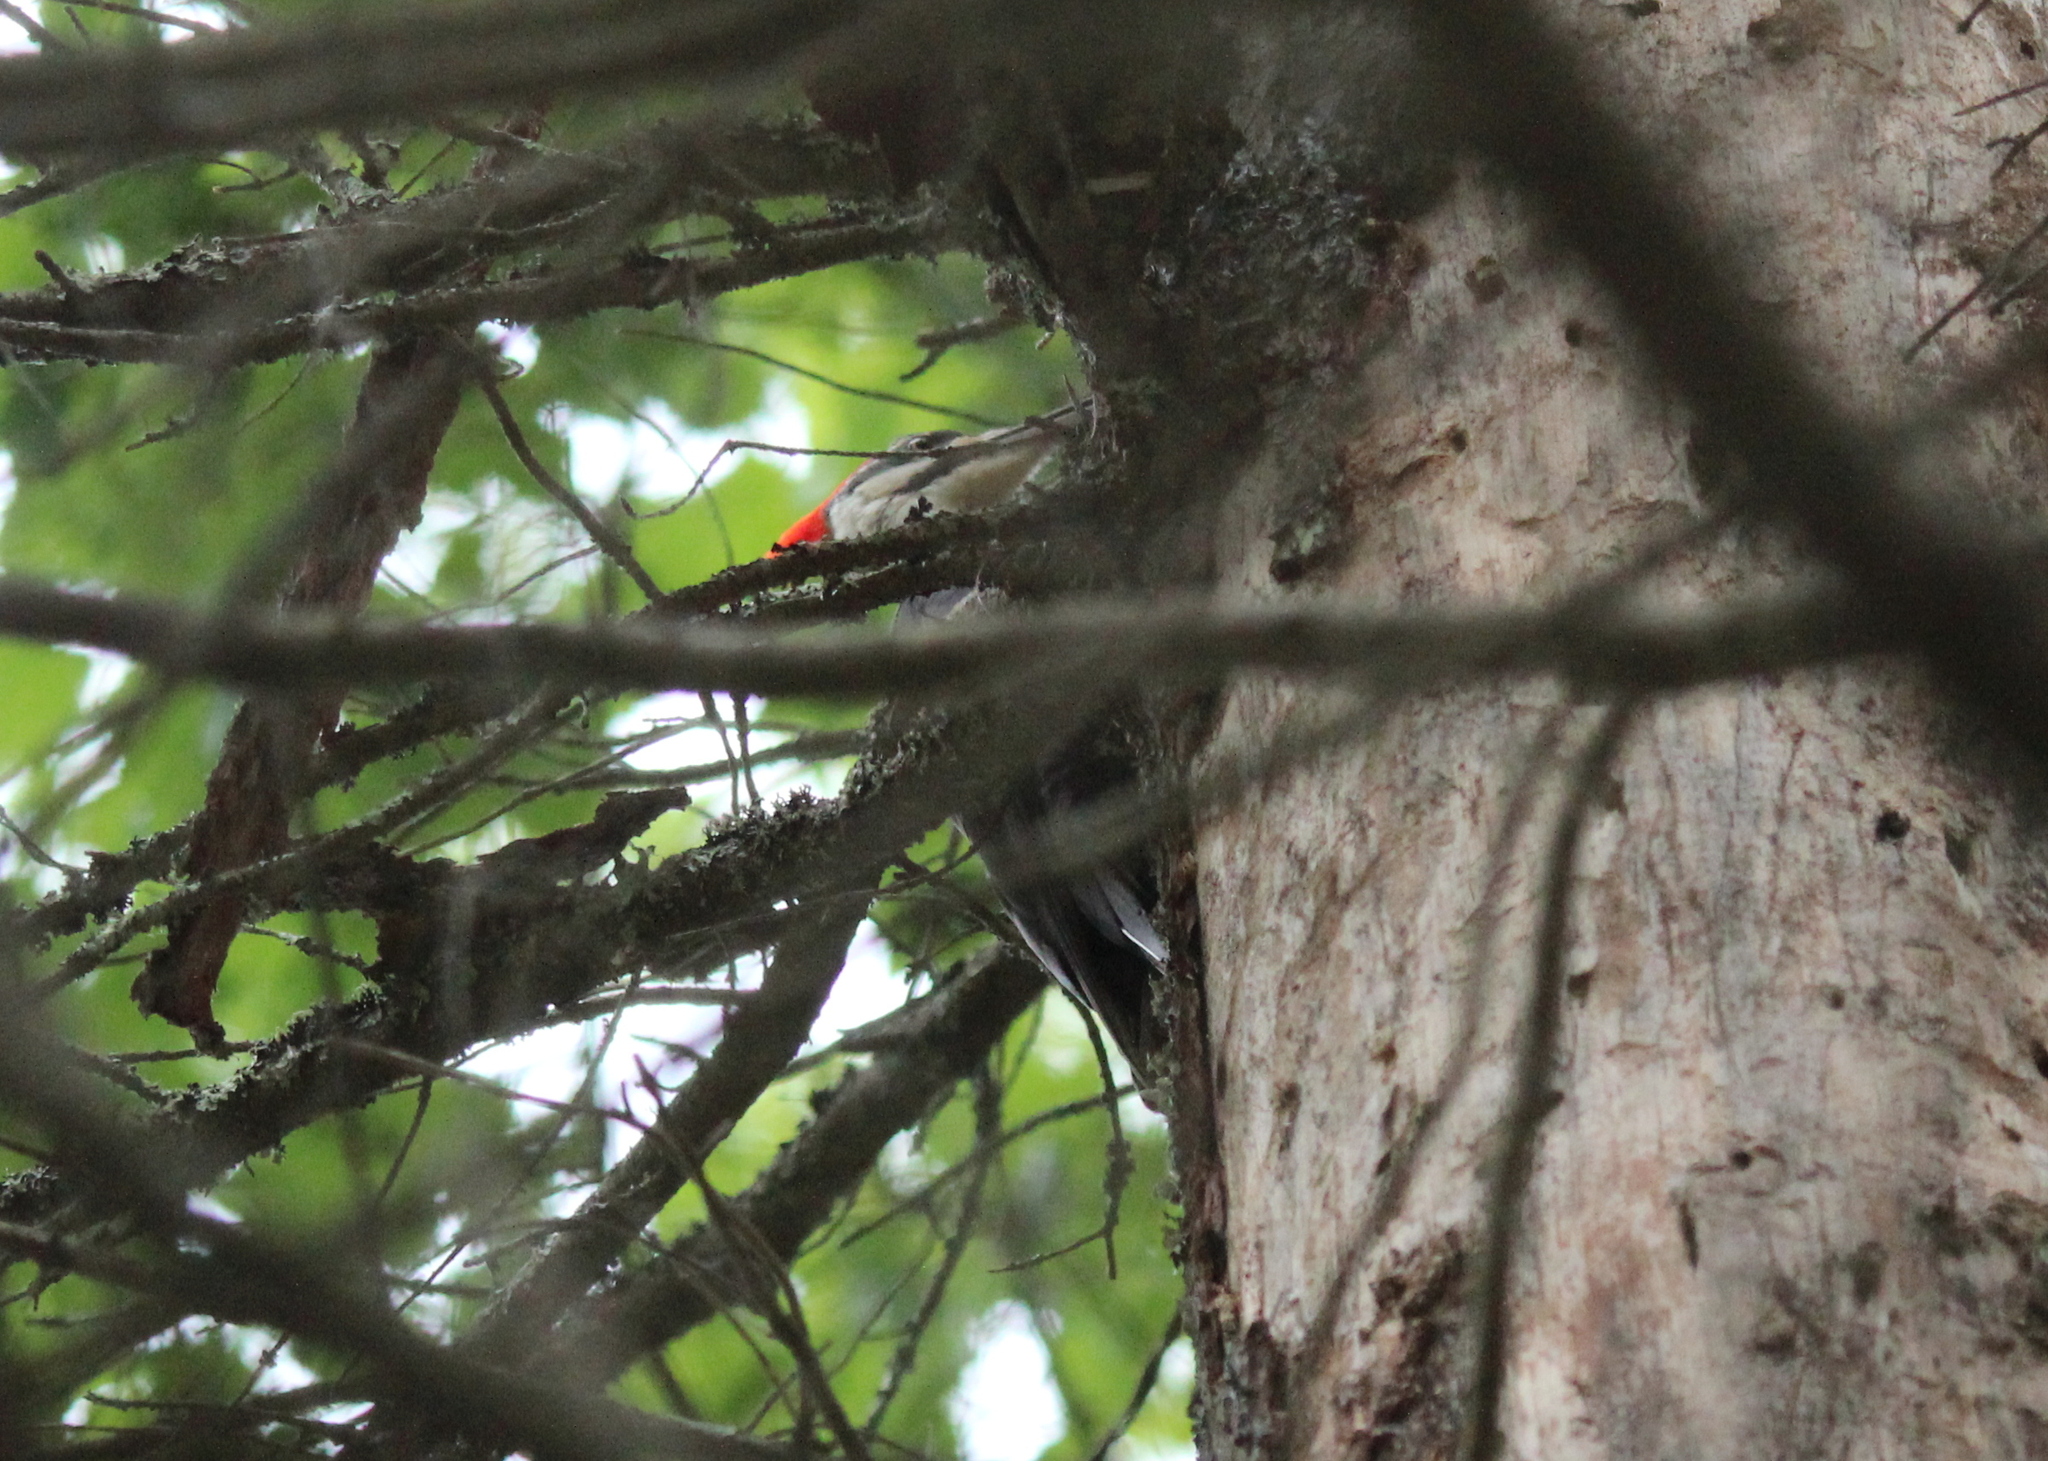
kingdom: Animalia
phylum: Chordata
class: Aves
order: Piciformes
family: Picidae
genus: Dryocopus
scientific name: Dryocopus pileatus
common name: Pileated woodpecker
